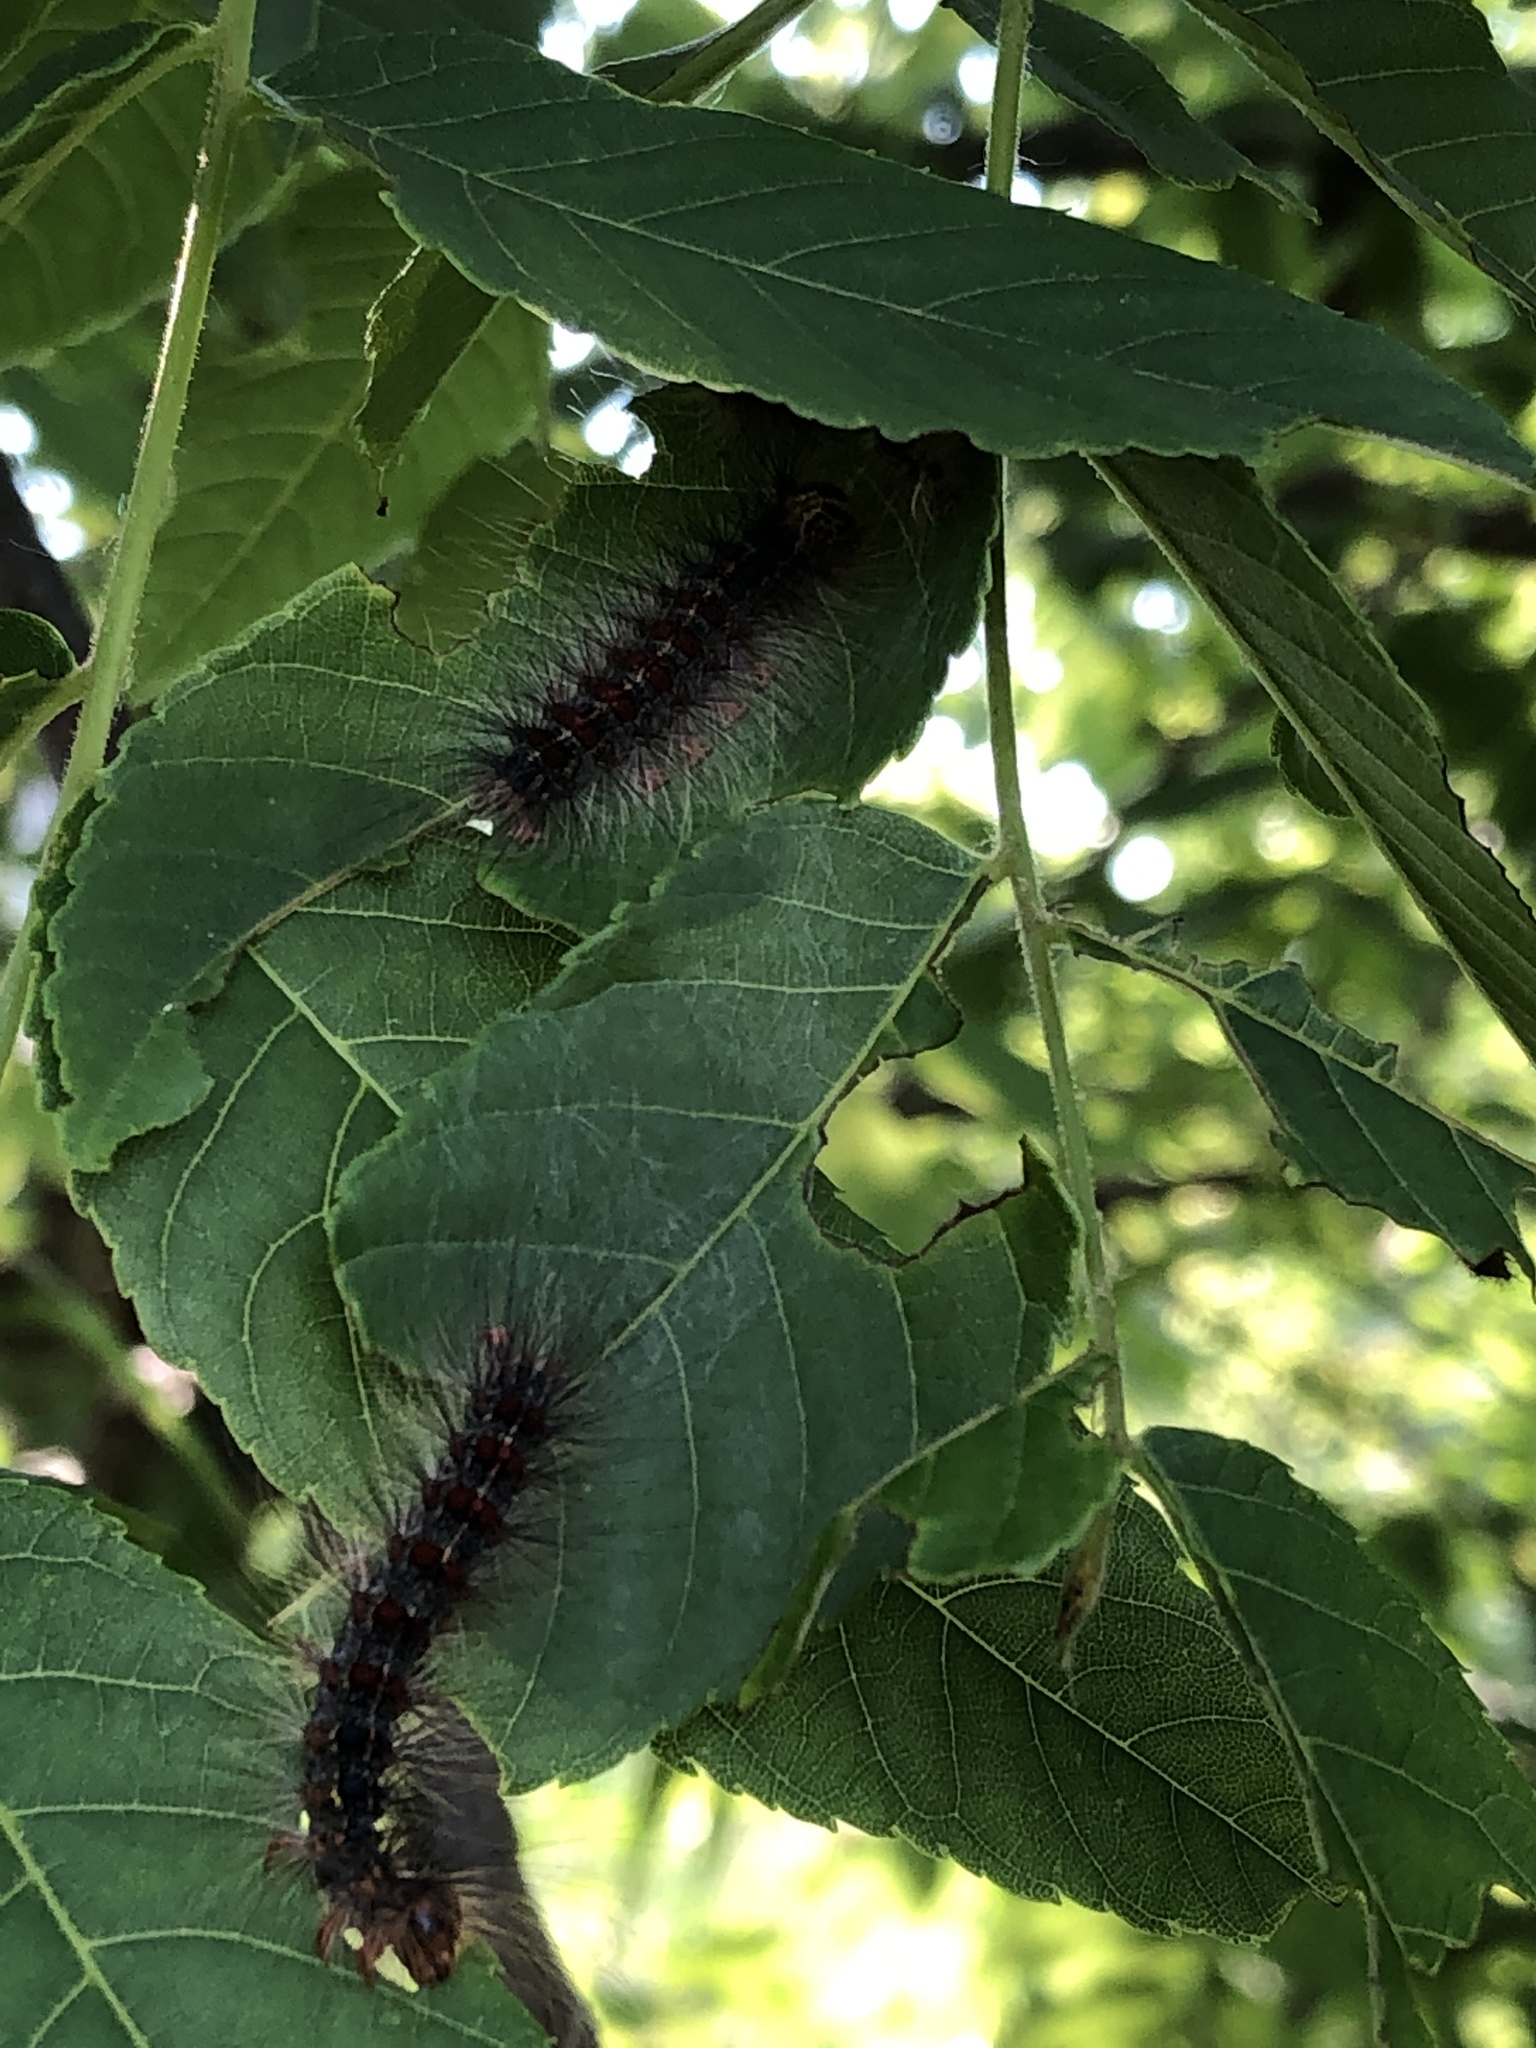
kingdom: Animalia
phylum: Arthropoda
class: Insecta
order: Lepidoptera
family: Erebidae
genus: Lymantria
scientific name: Lymantria dispar
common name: Gypsy moth
